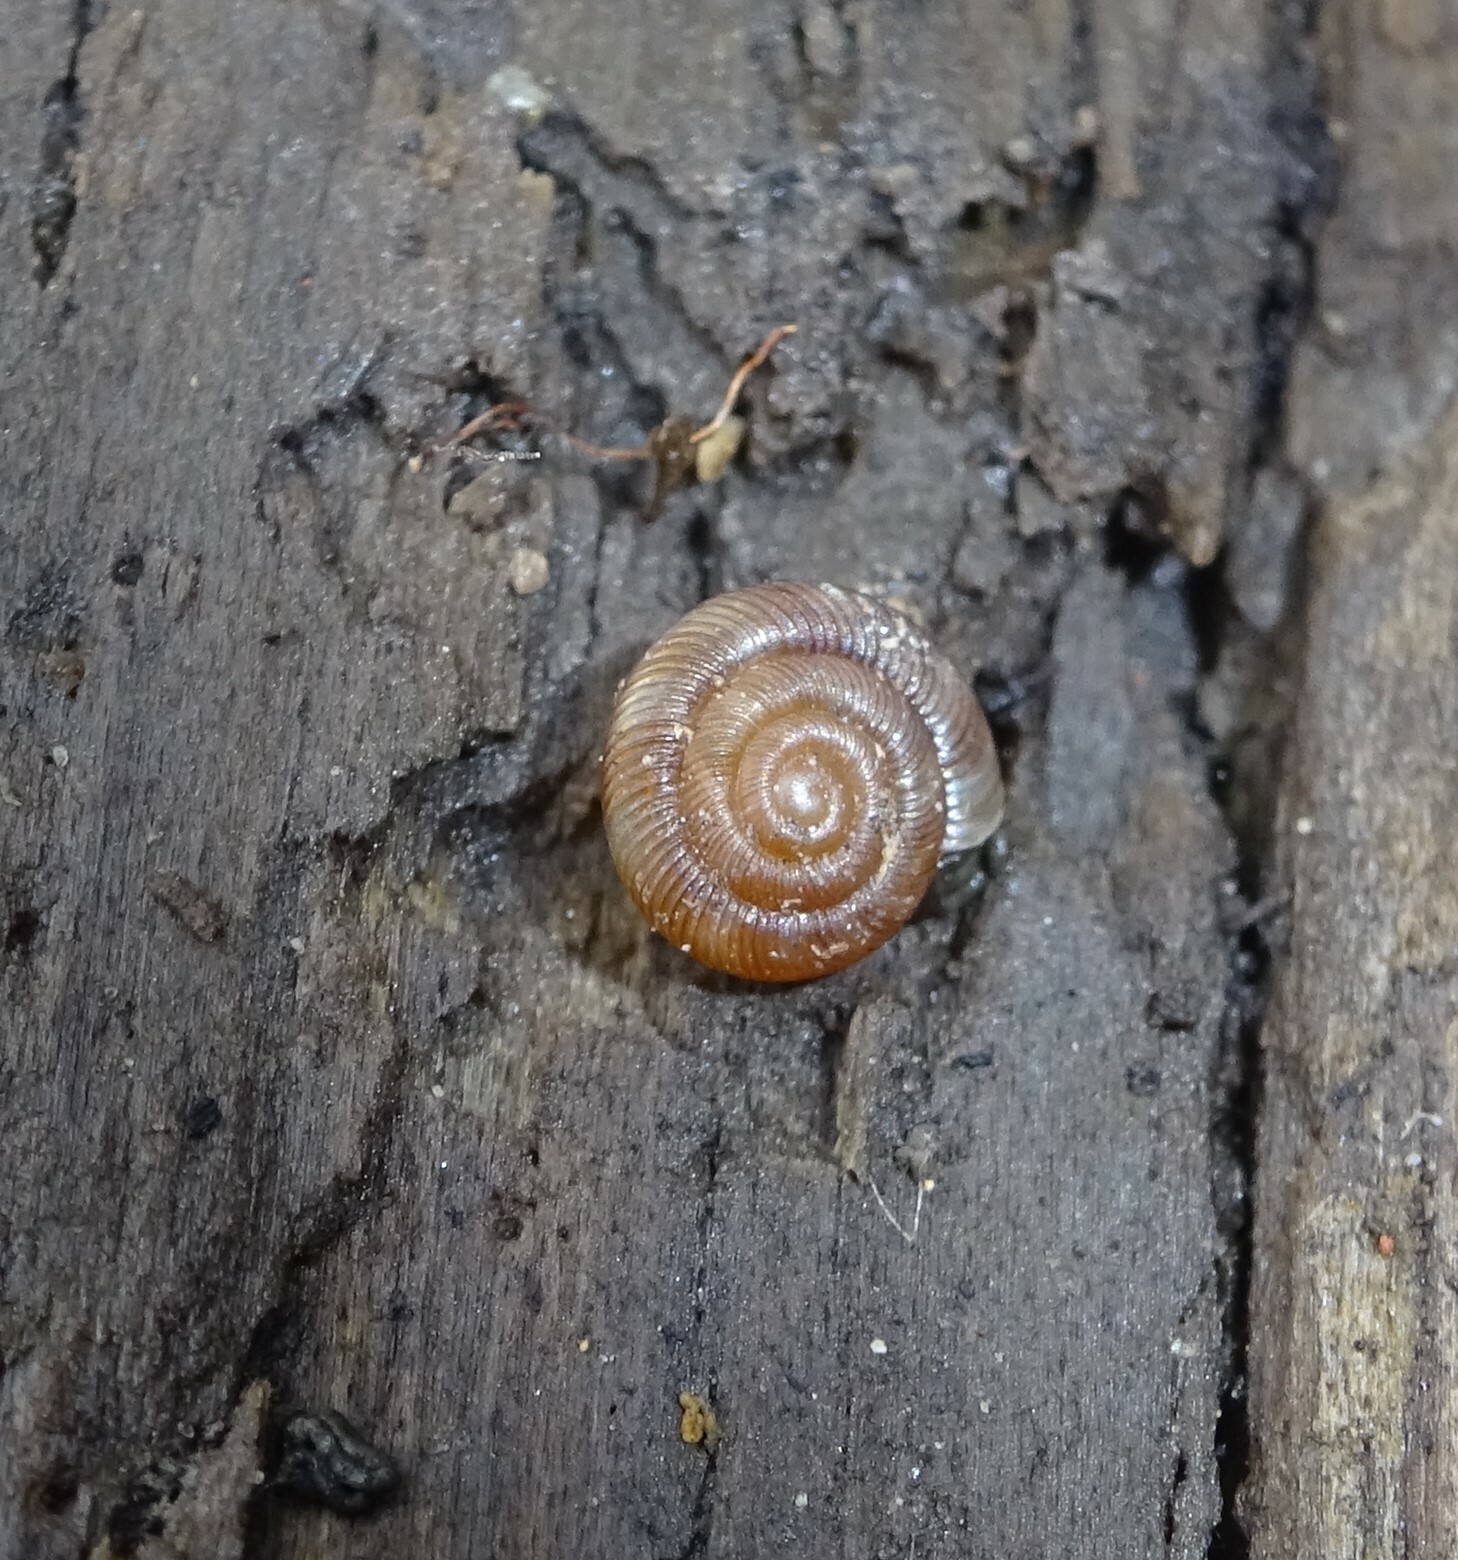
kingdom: Animalia
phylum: Mollusca
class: Gastropoda
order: Stylommatophora
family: Discidae
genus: Discus
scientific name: Discus rotundatus
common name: Rounded snail
